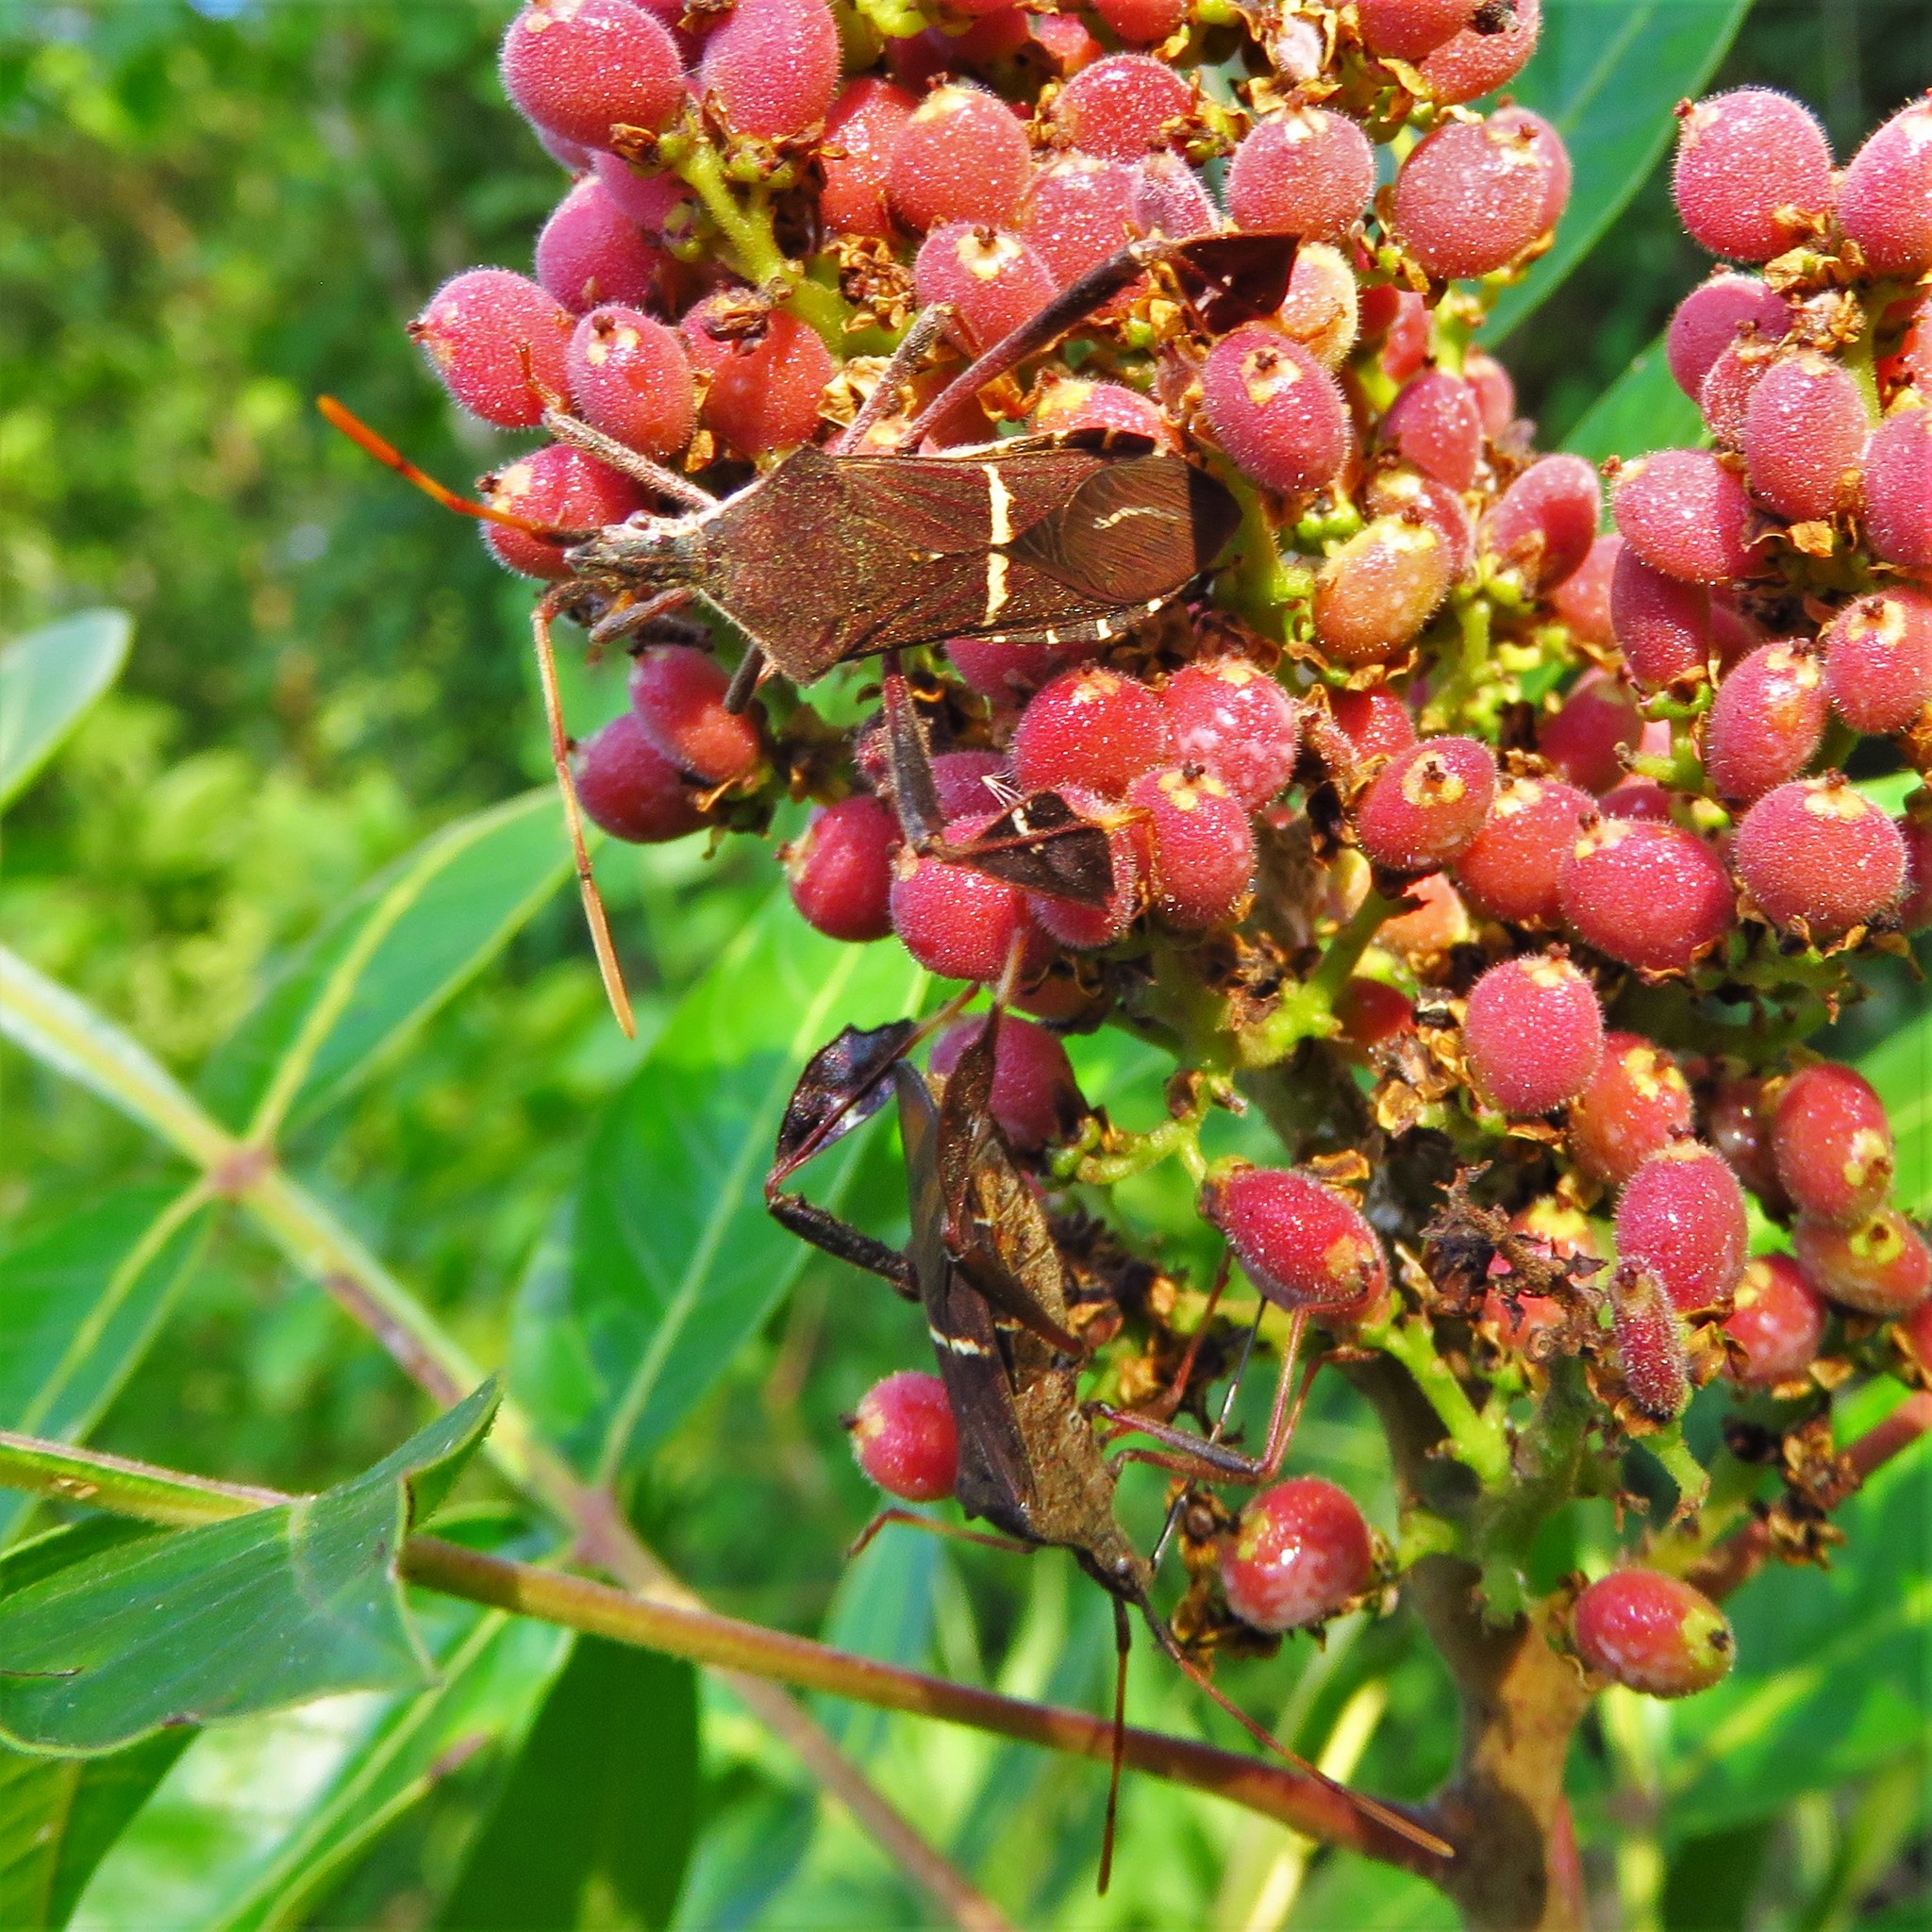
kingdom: Animalia
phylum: Arthropoda
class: Insecta
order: Hemiptera
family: Coreidae
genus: Leptoglossus
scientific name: Leptoglossus phyllopus
